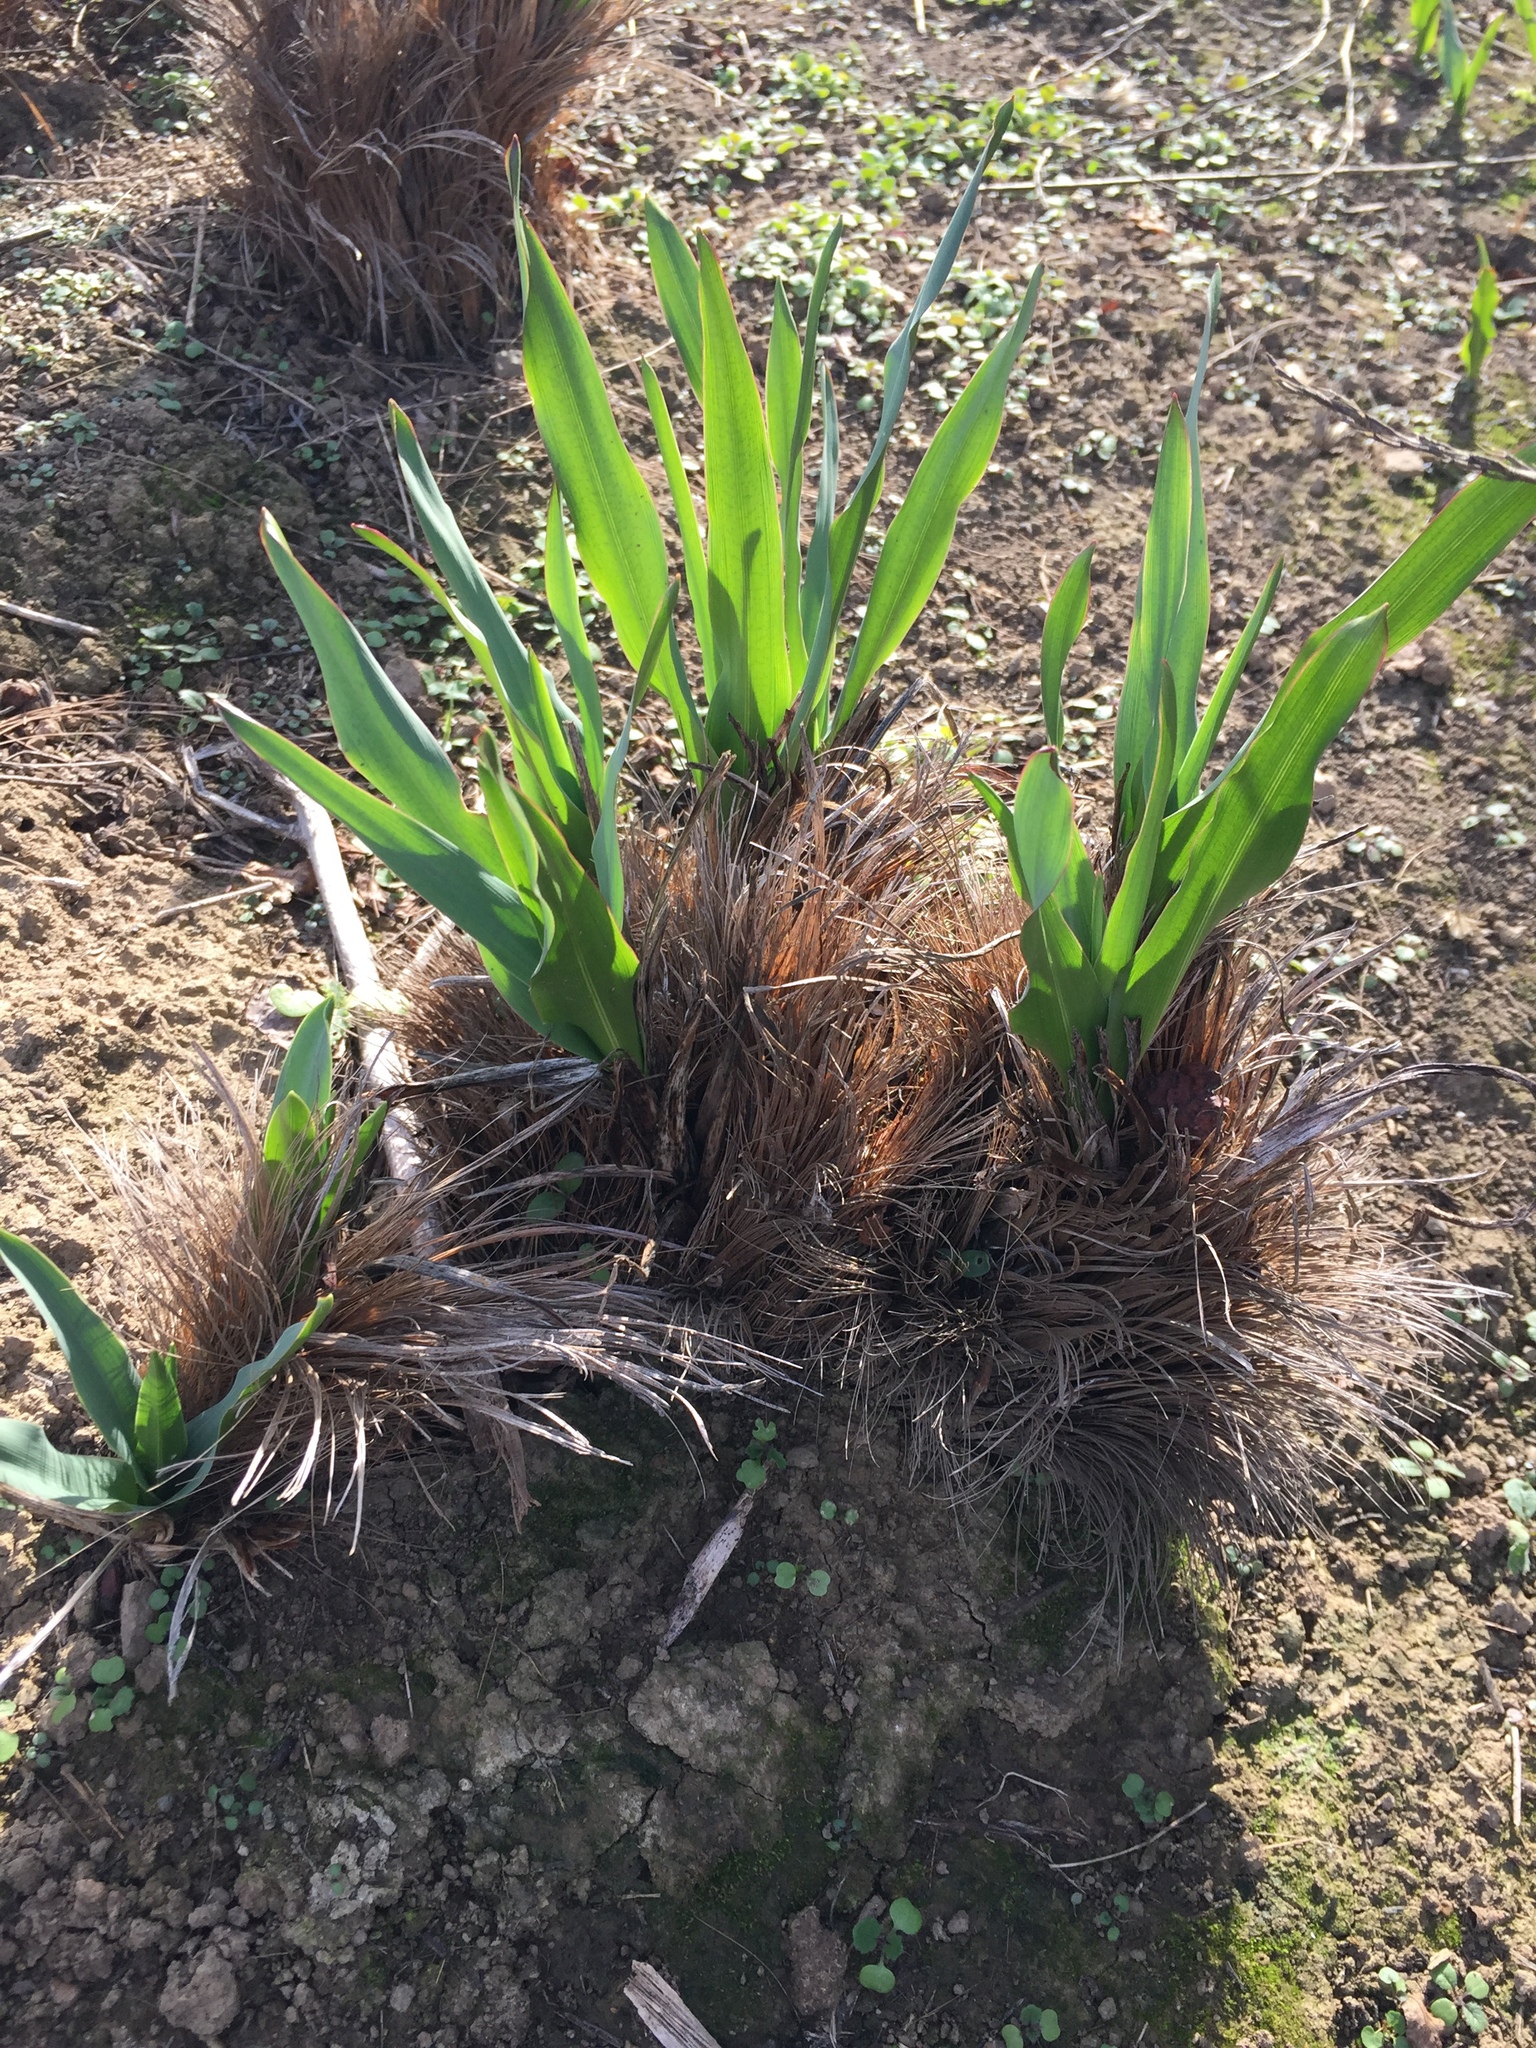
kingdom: Plantae
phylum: Tracheophyta
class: Liliopsida
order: Asparagales
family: Asparagaceae
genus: Chlorogalum
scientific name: Chlorogalum pomeridianum
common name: Amole
